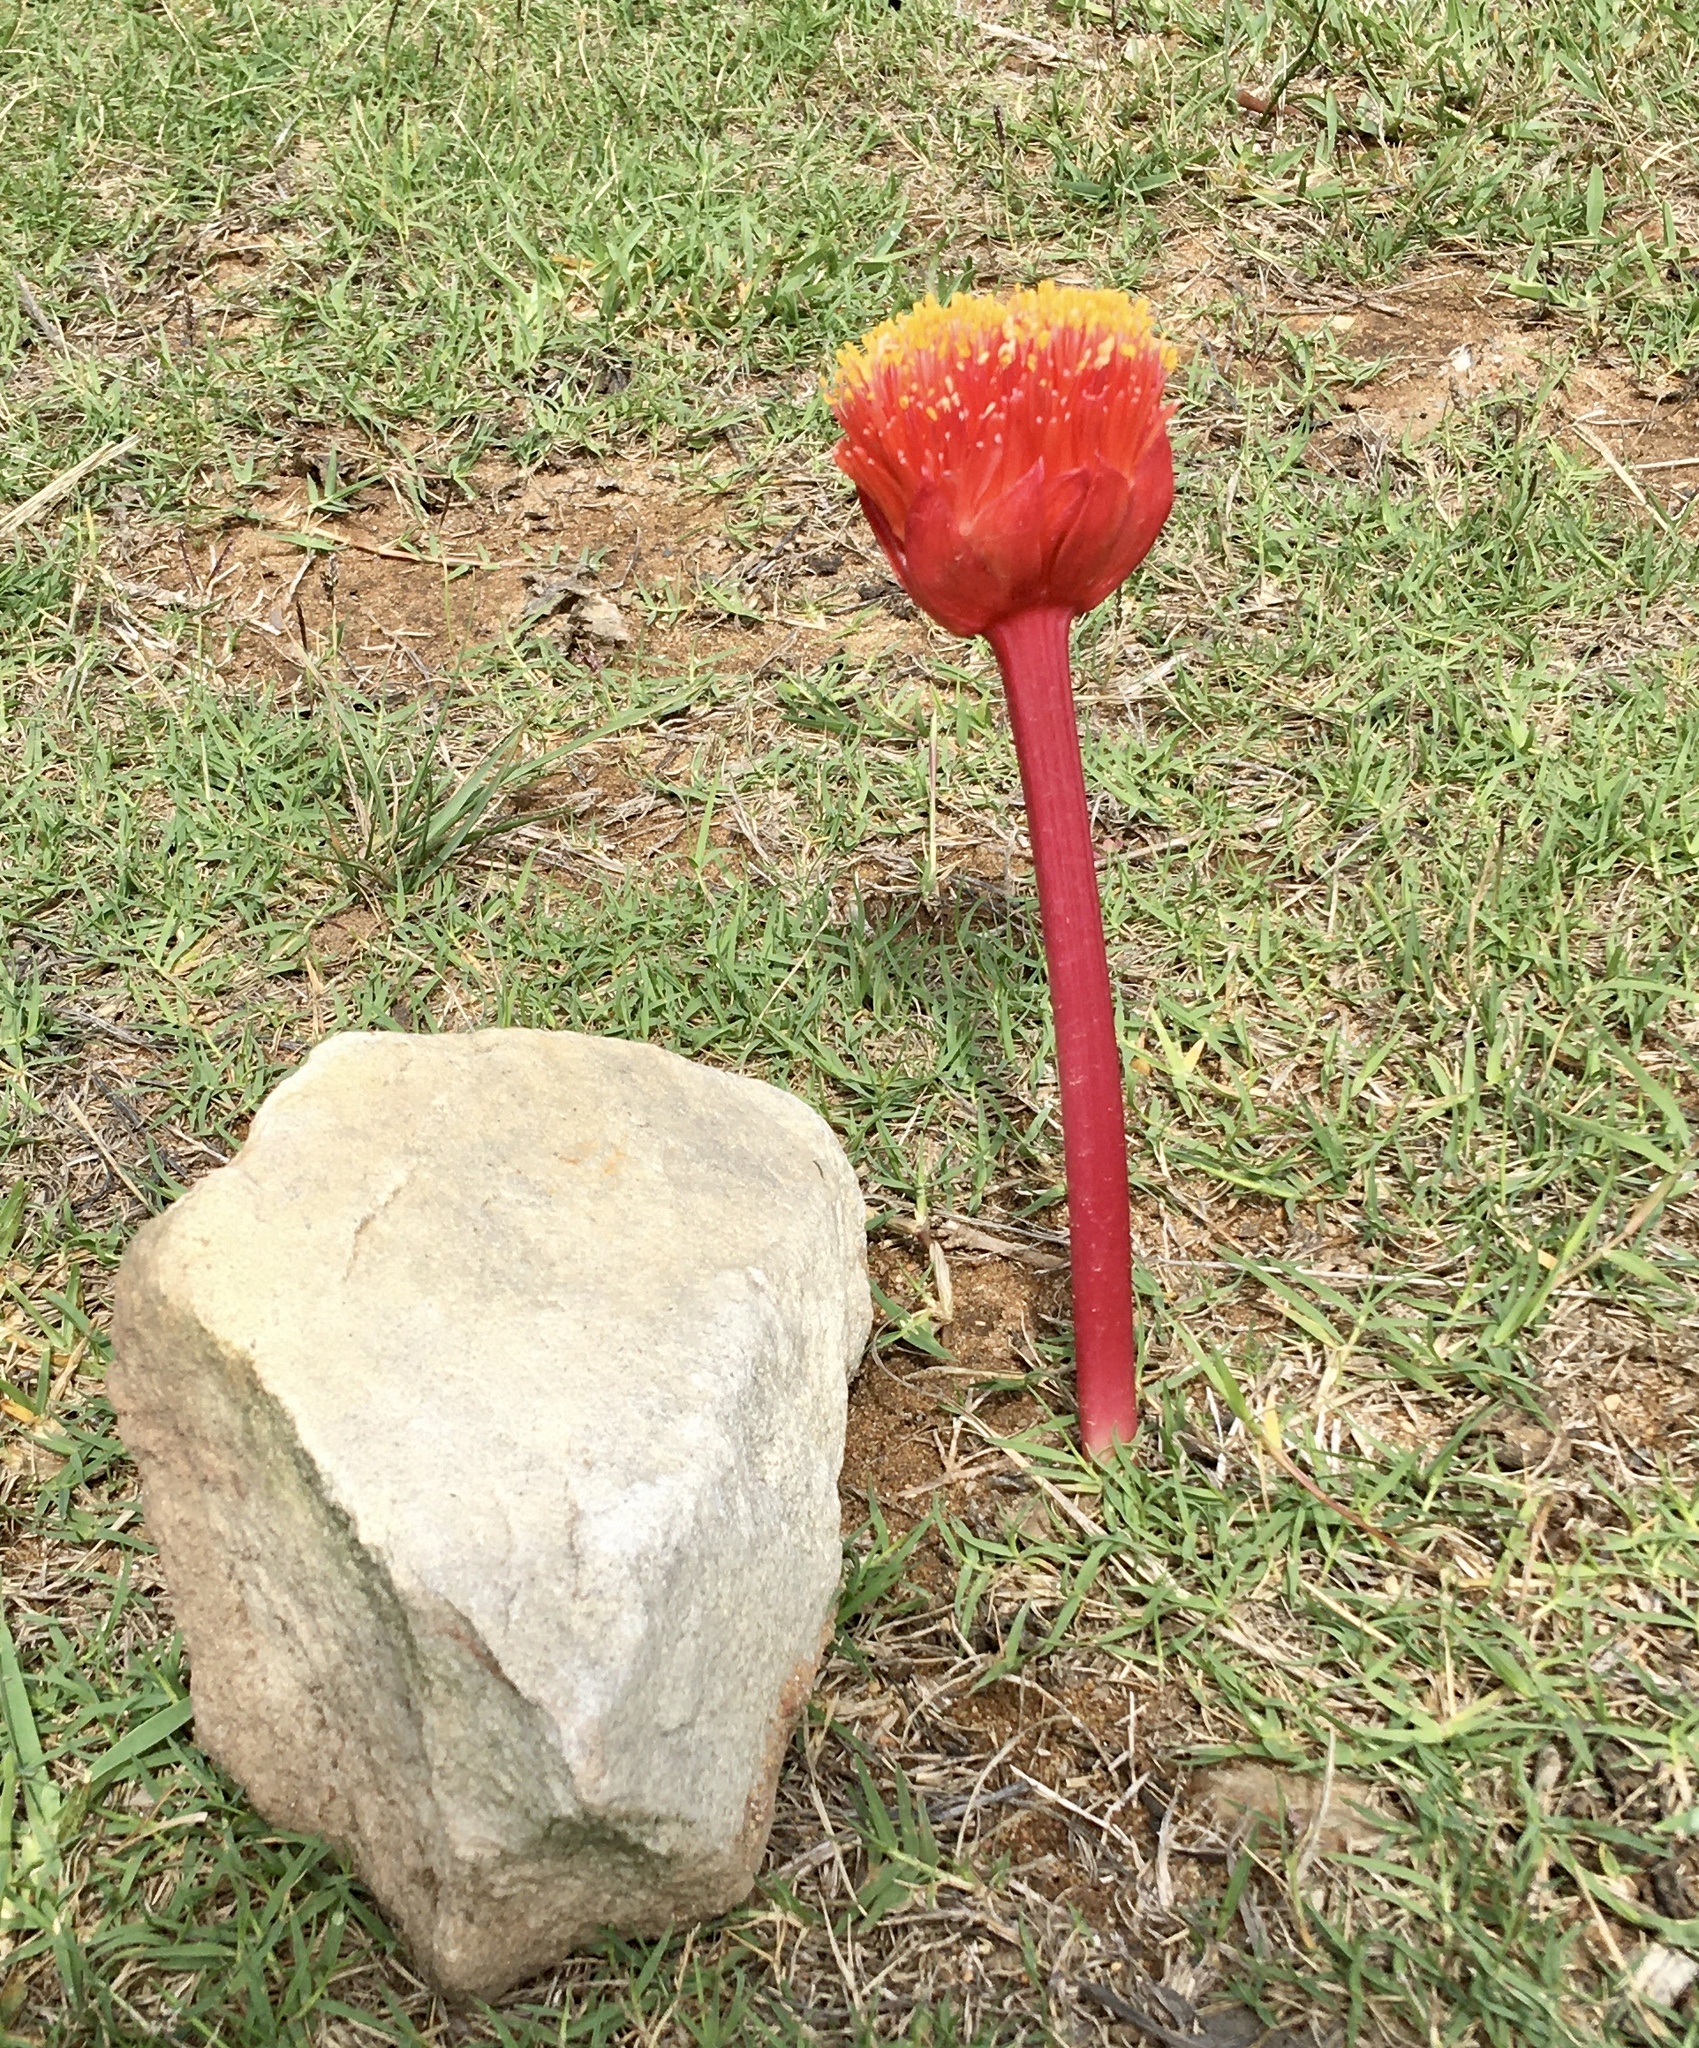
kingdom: Plantae
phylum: Tracheophyta
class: Liliopsida
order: Asparagales
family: Amaryllidaceae
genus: Haemanthus
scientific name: Haemanthus sanguineus
